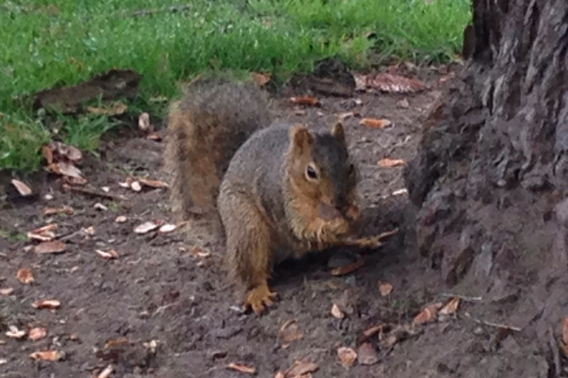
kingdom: Animalia
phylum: Chordata
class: Mammalia
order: Rodentia
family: Sciuridae
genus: Sciurus
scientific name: Sciurus niger
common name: Fox squirrel
